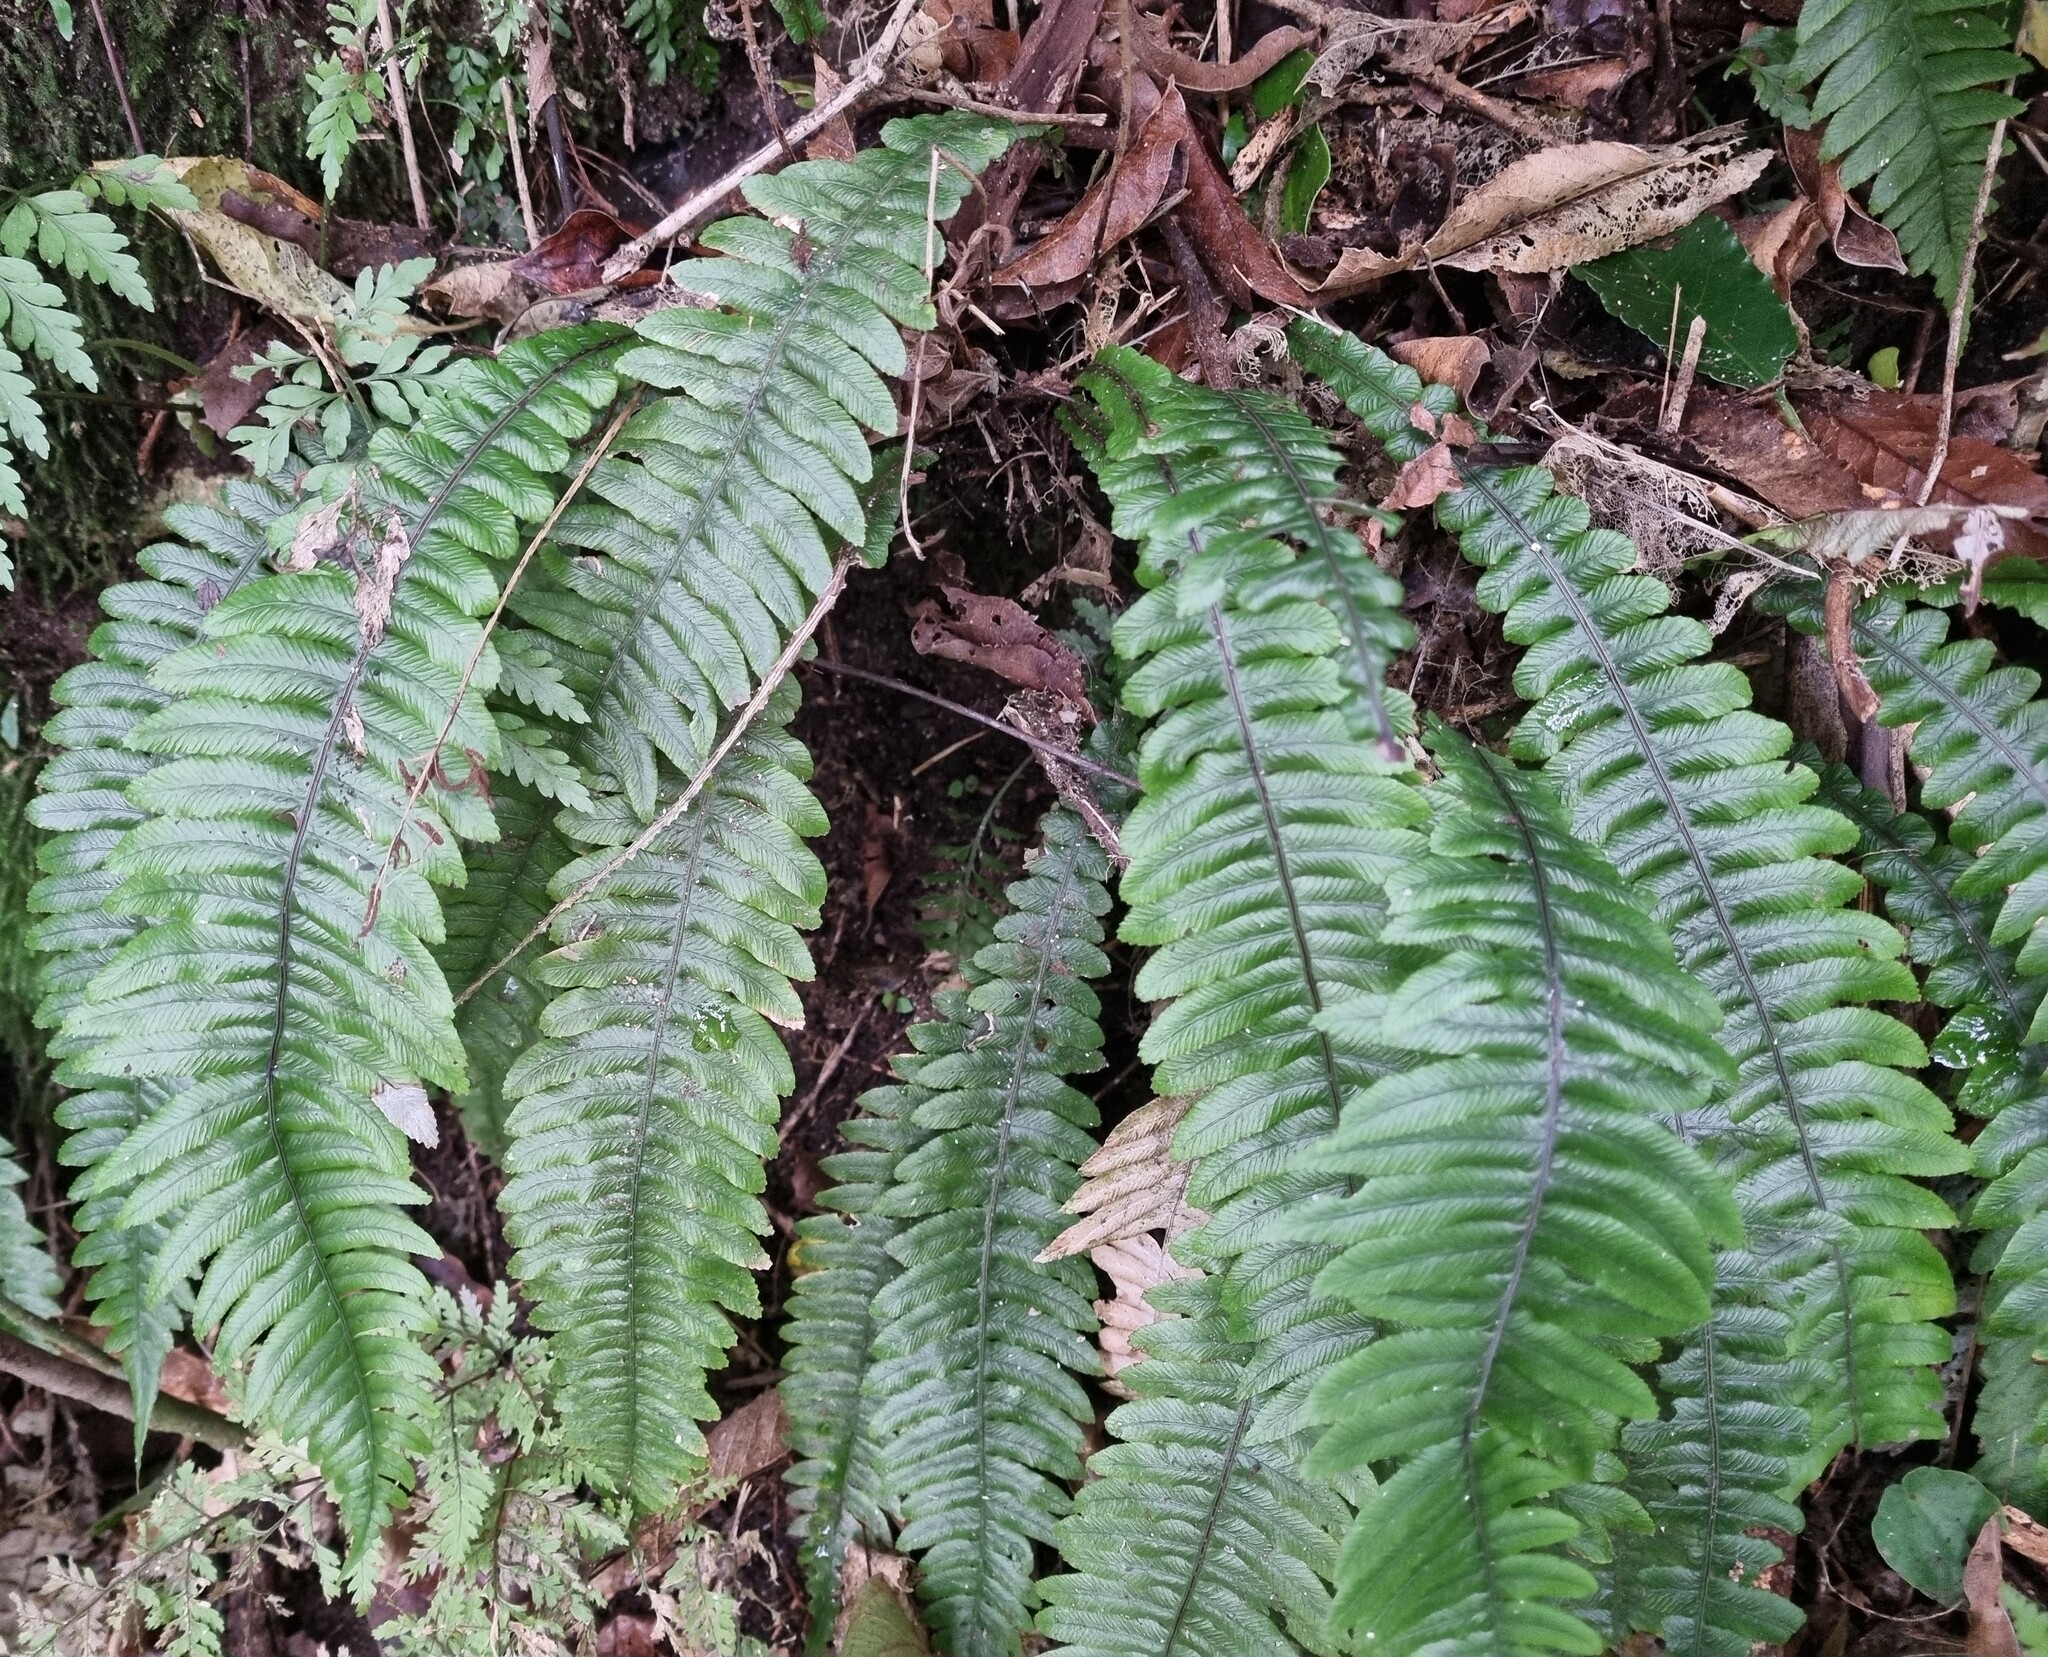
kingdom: Plantae
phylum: Tracheophyta
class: Polypodiopsida
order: Polypodiales
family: Blechnaceae
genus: Austroblechnum
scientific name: Austroblechnum lanceolatum
